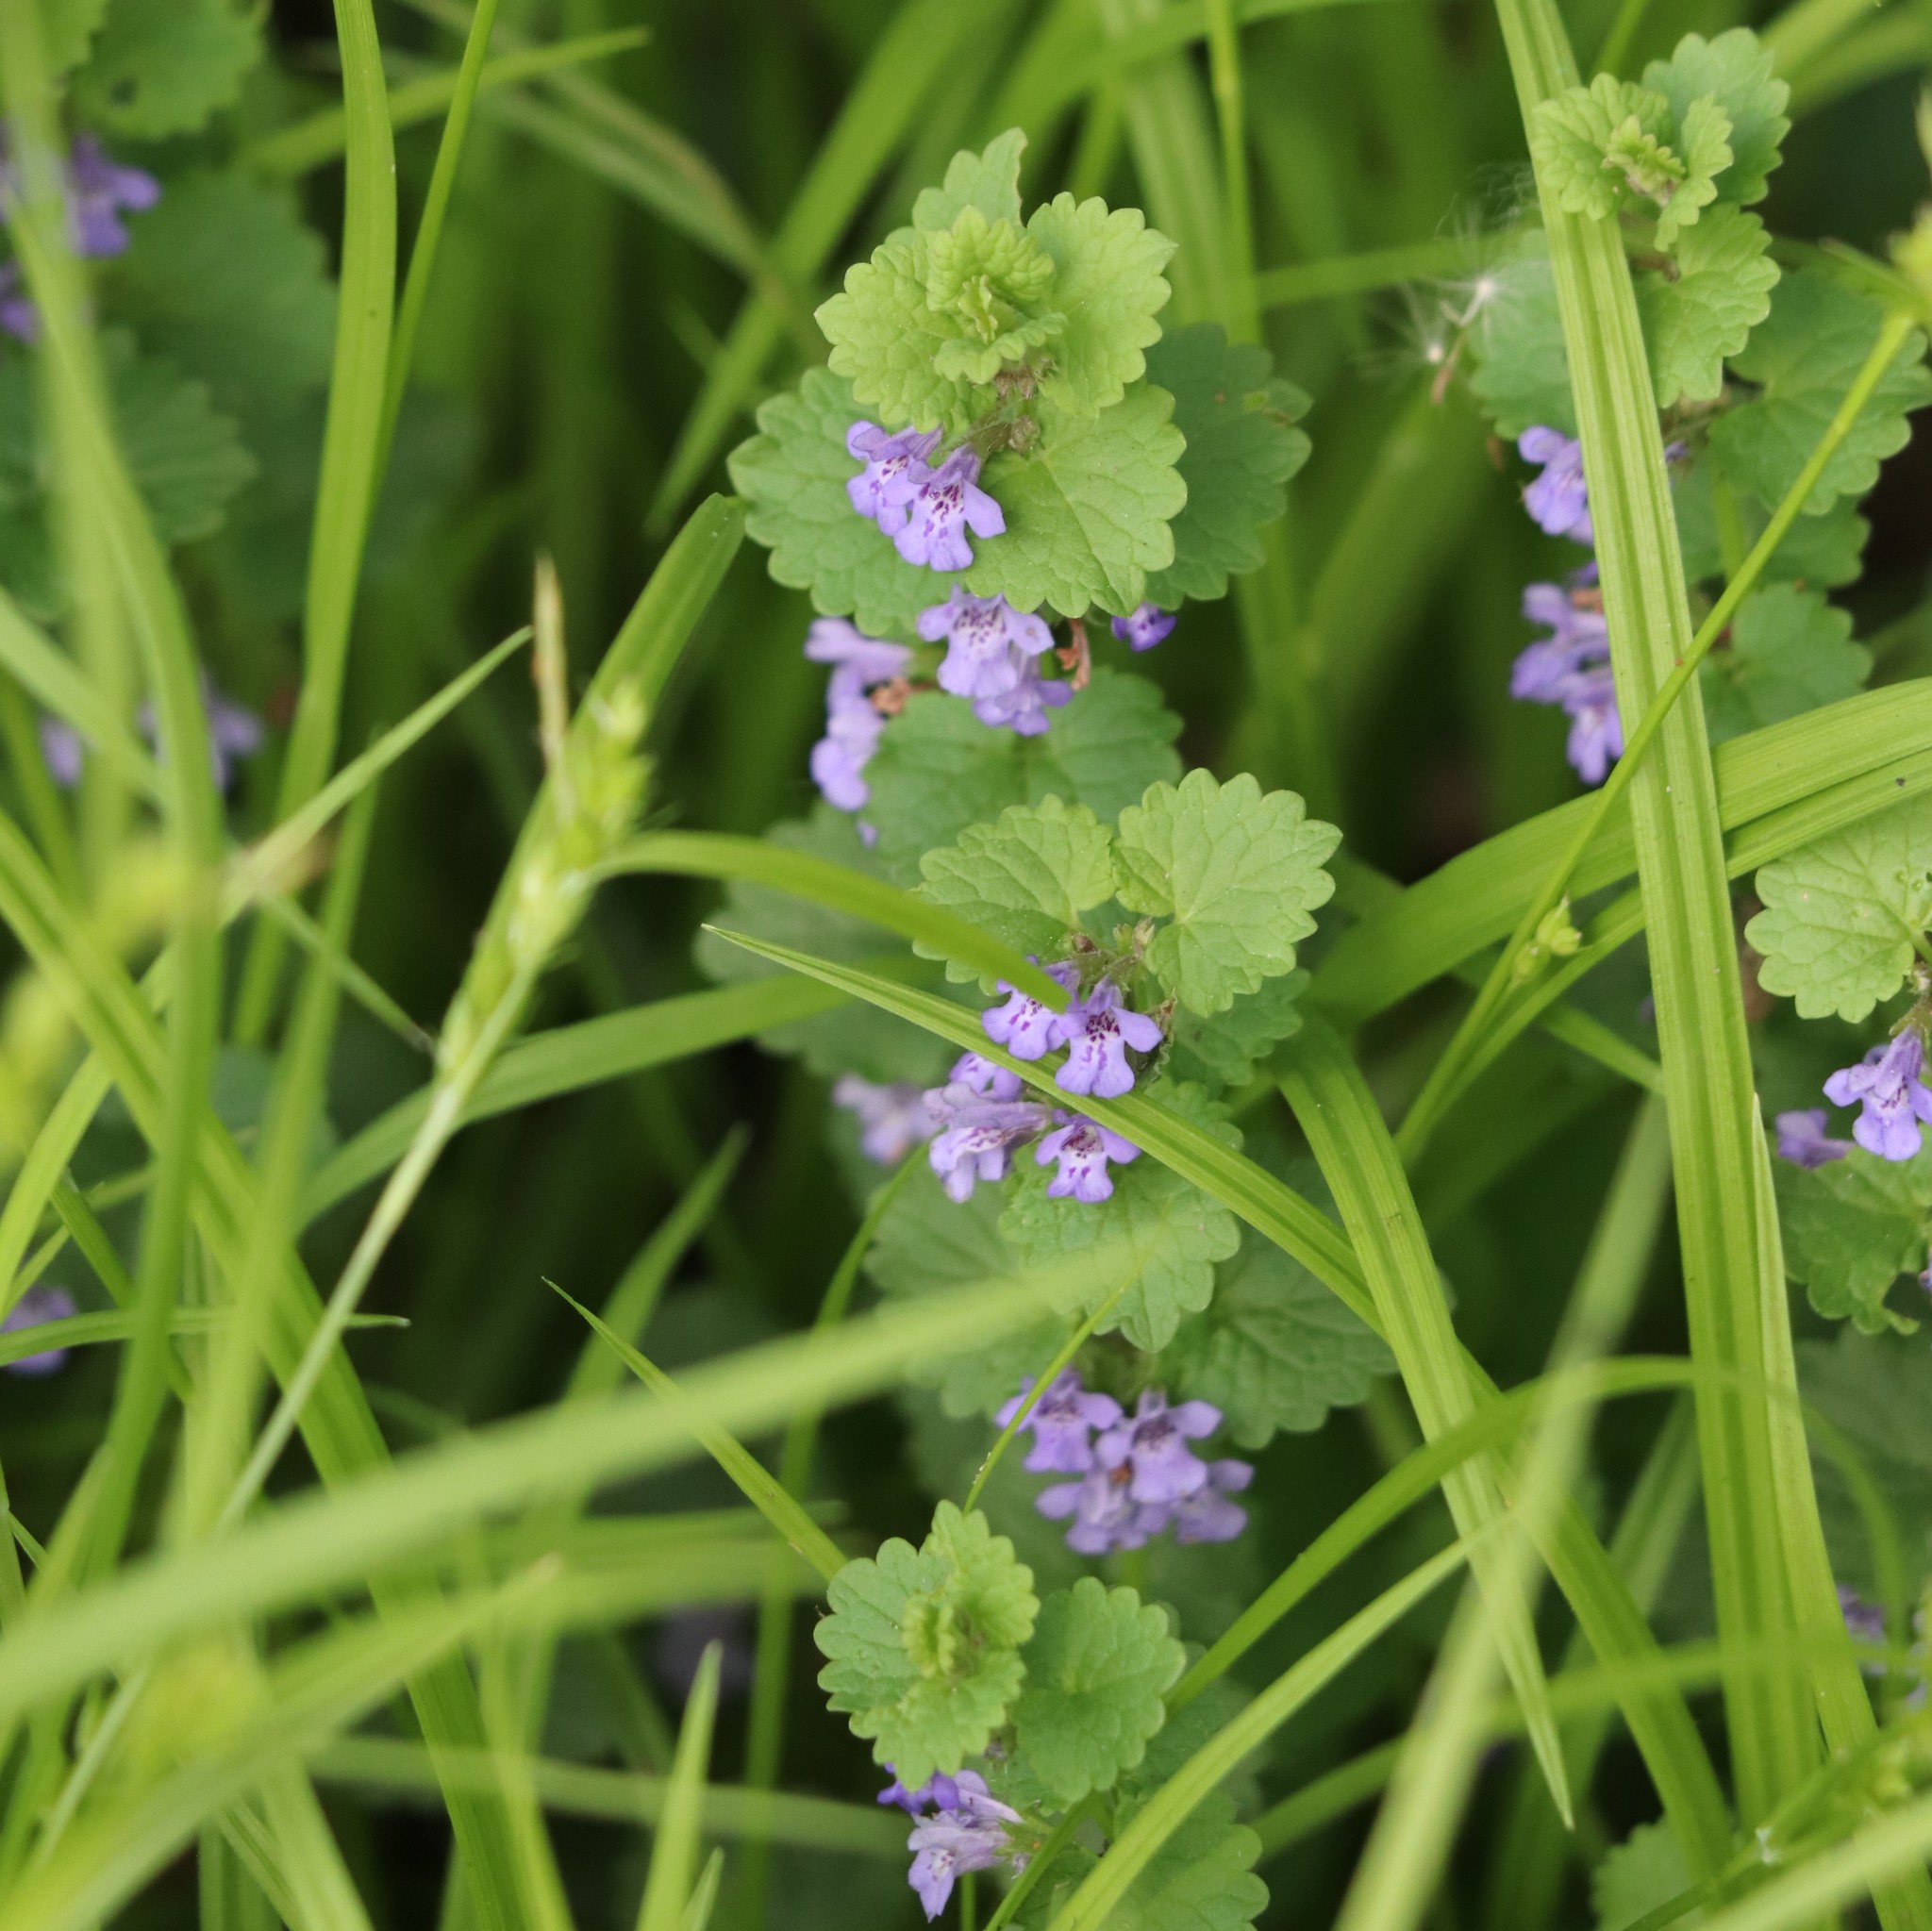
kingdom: Plantae
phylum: Tracheophyta
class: Magnoliopsida
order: Lamiales
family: Lamiaceae
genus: Glechoma
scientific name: Glechoma hederacea
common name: Ground ivy
